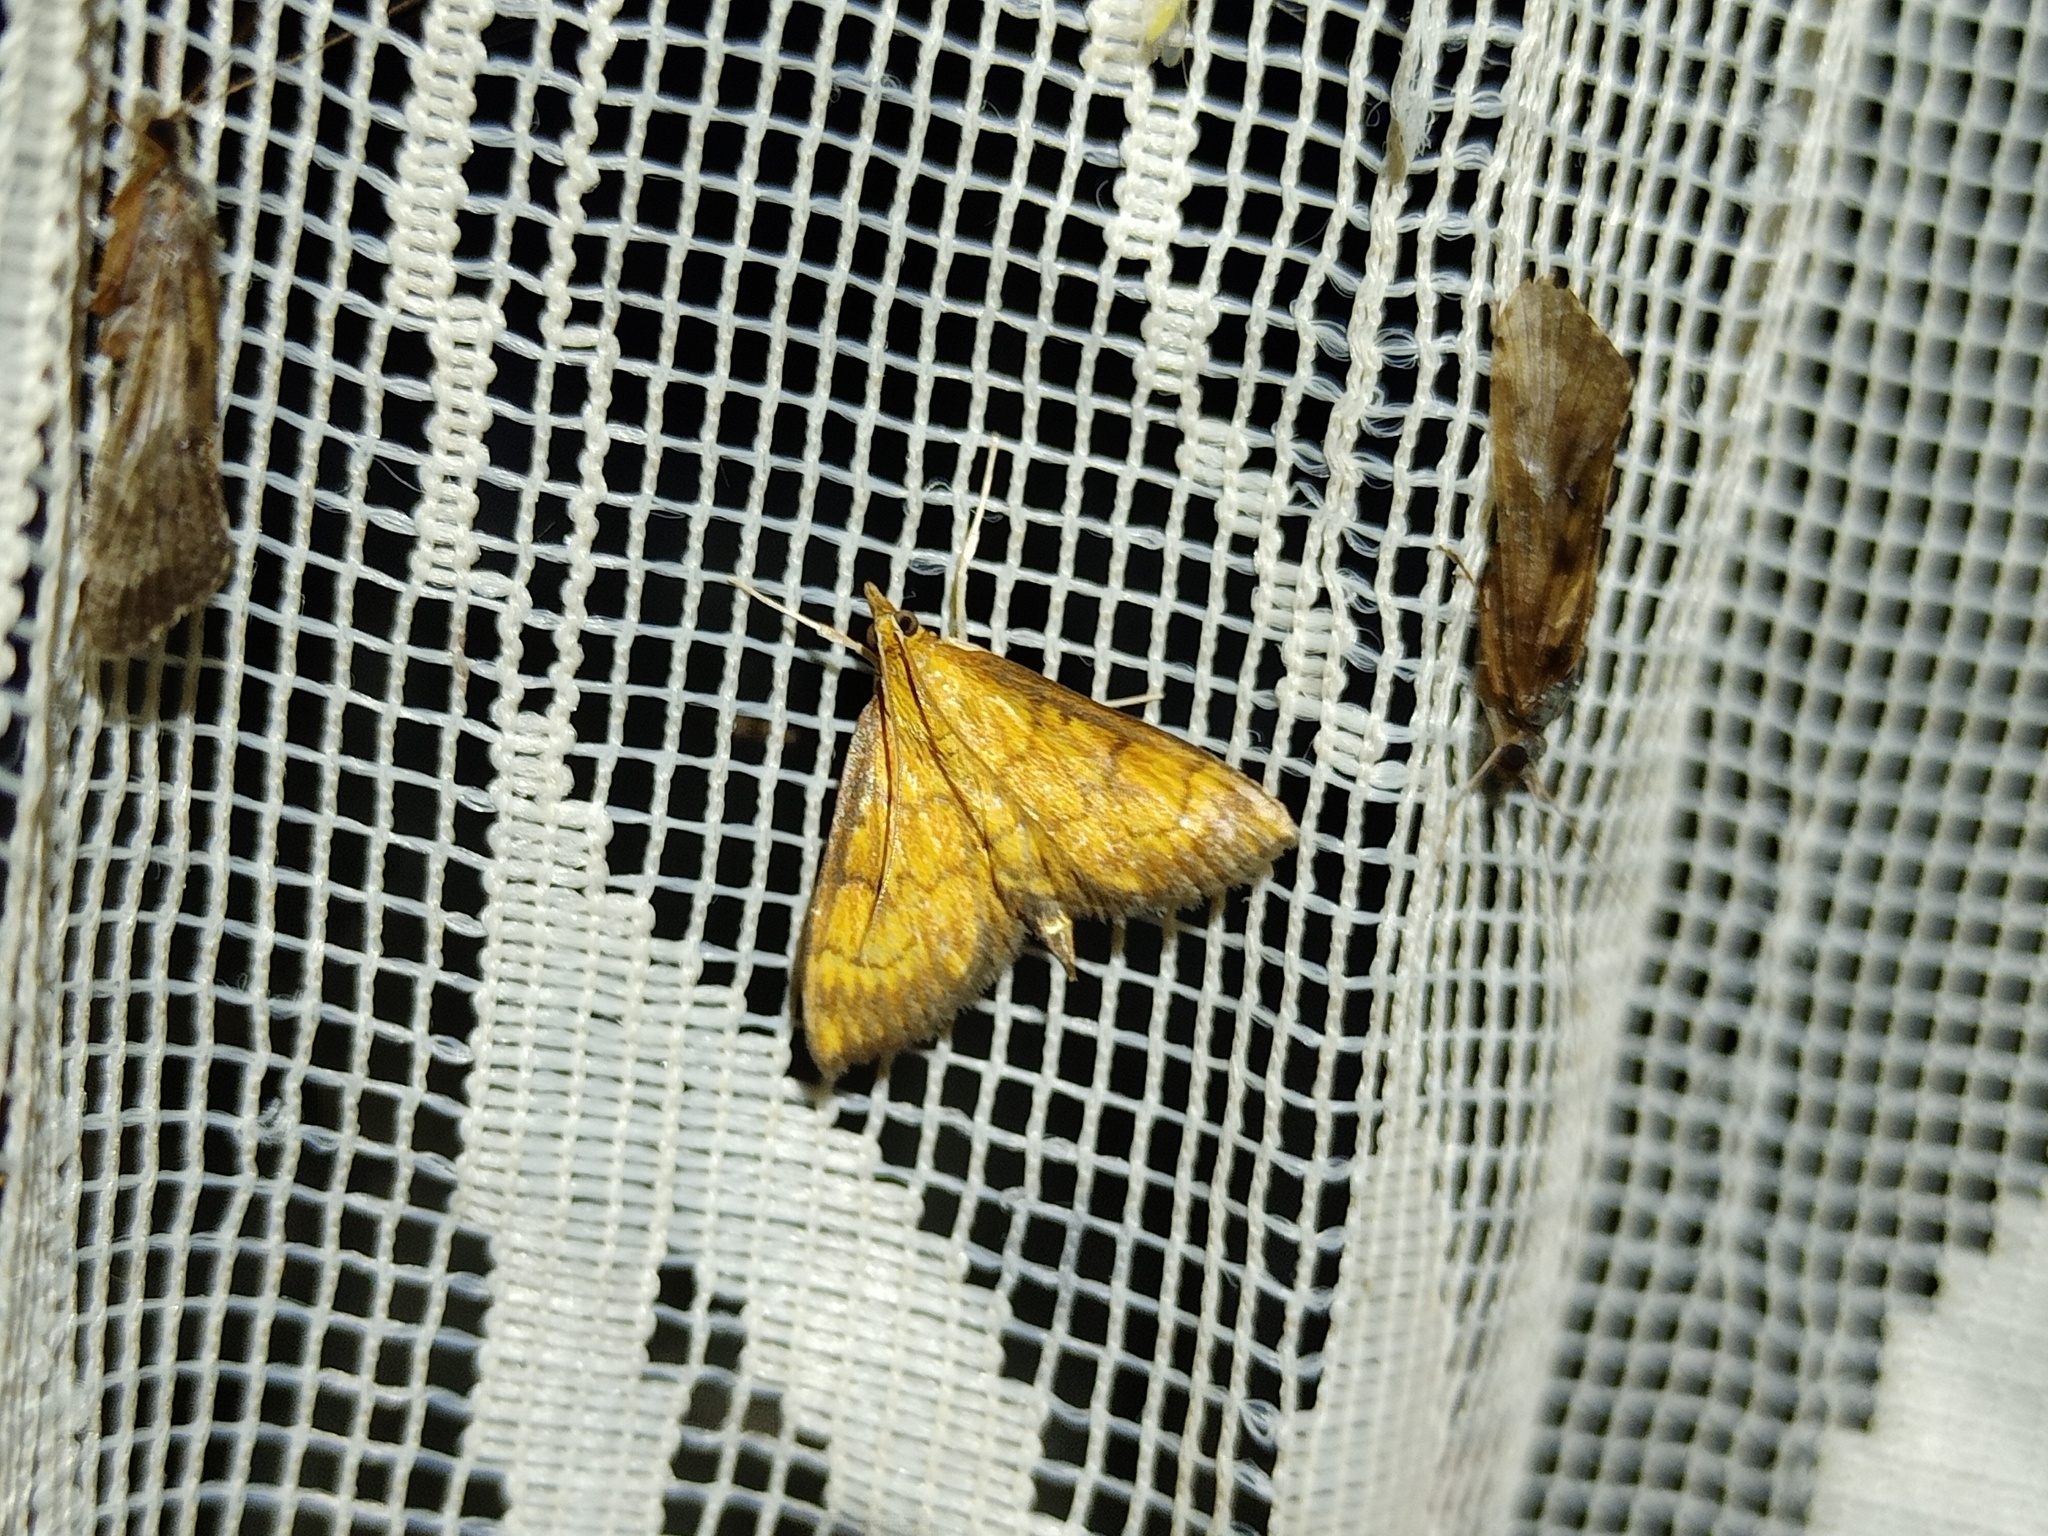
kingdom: Animalia
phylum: Arthropoda
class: Insecta
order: Lepidoptera
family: Crambidae
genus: Ecpyrrhorrhoe
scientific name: Ecpyrrhorrhoe rubiginalis
